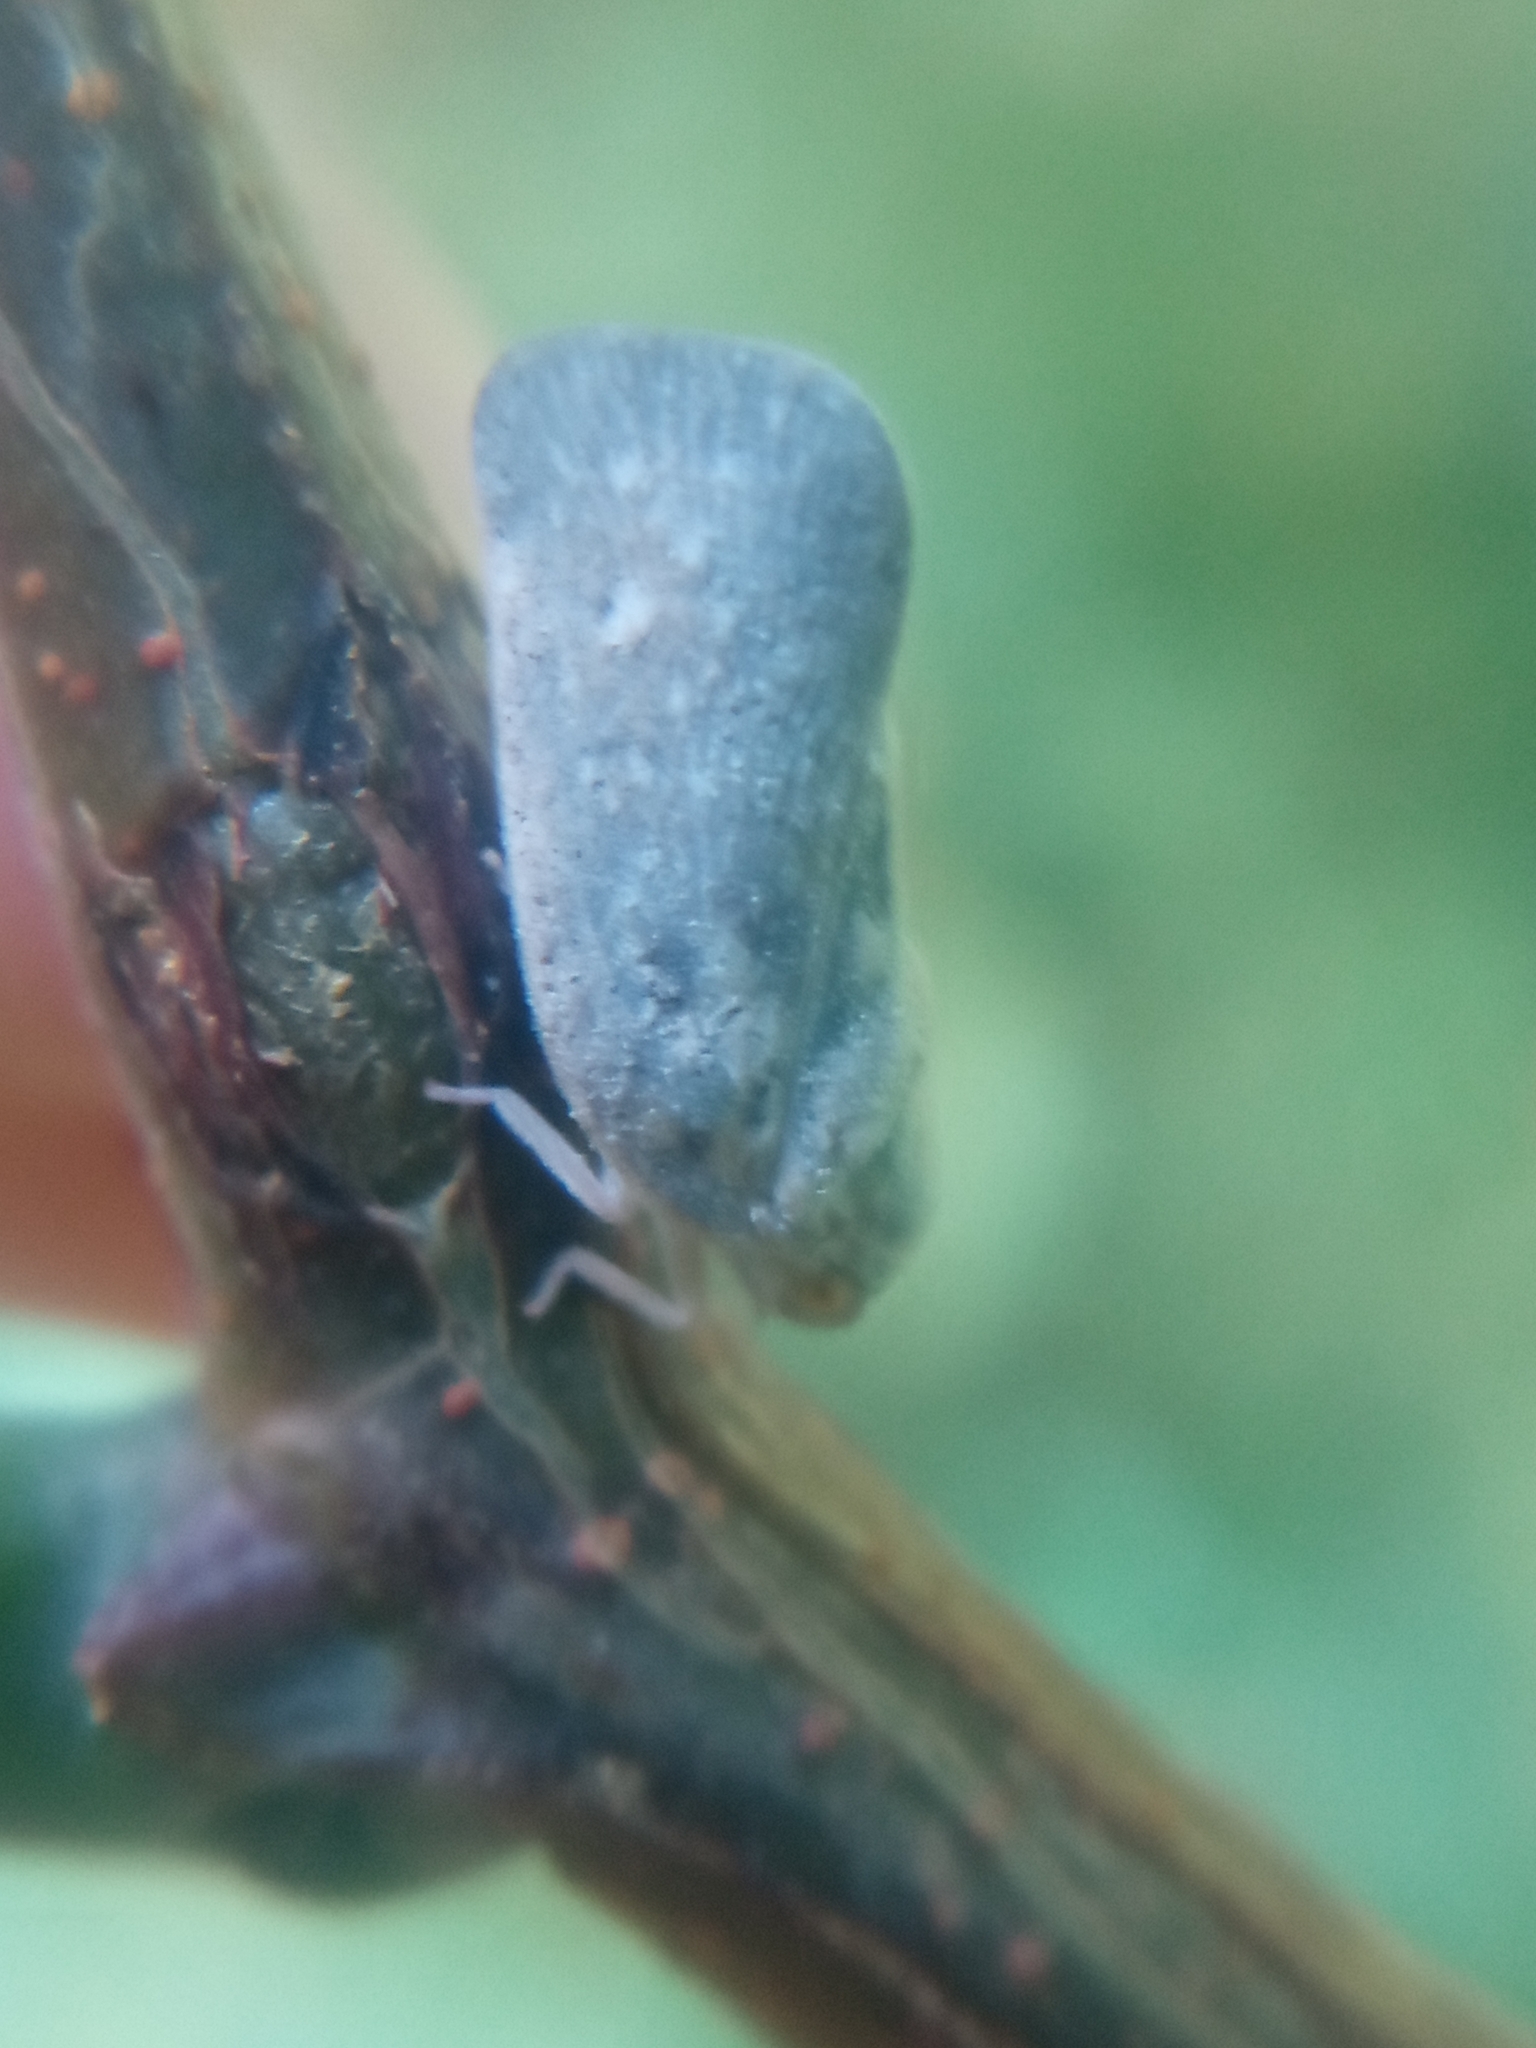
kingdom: Animalia
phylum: Arthropoda
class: Insecta
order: Hemiptera
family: Flatidae
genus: Metcalfa
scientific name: Metcalfa pruinosa
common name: Citrus flatid planthopper
